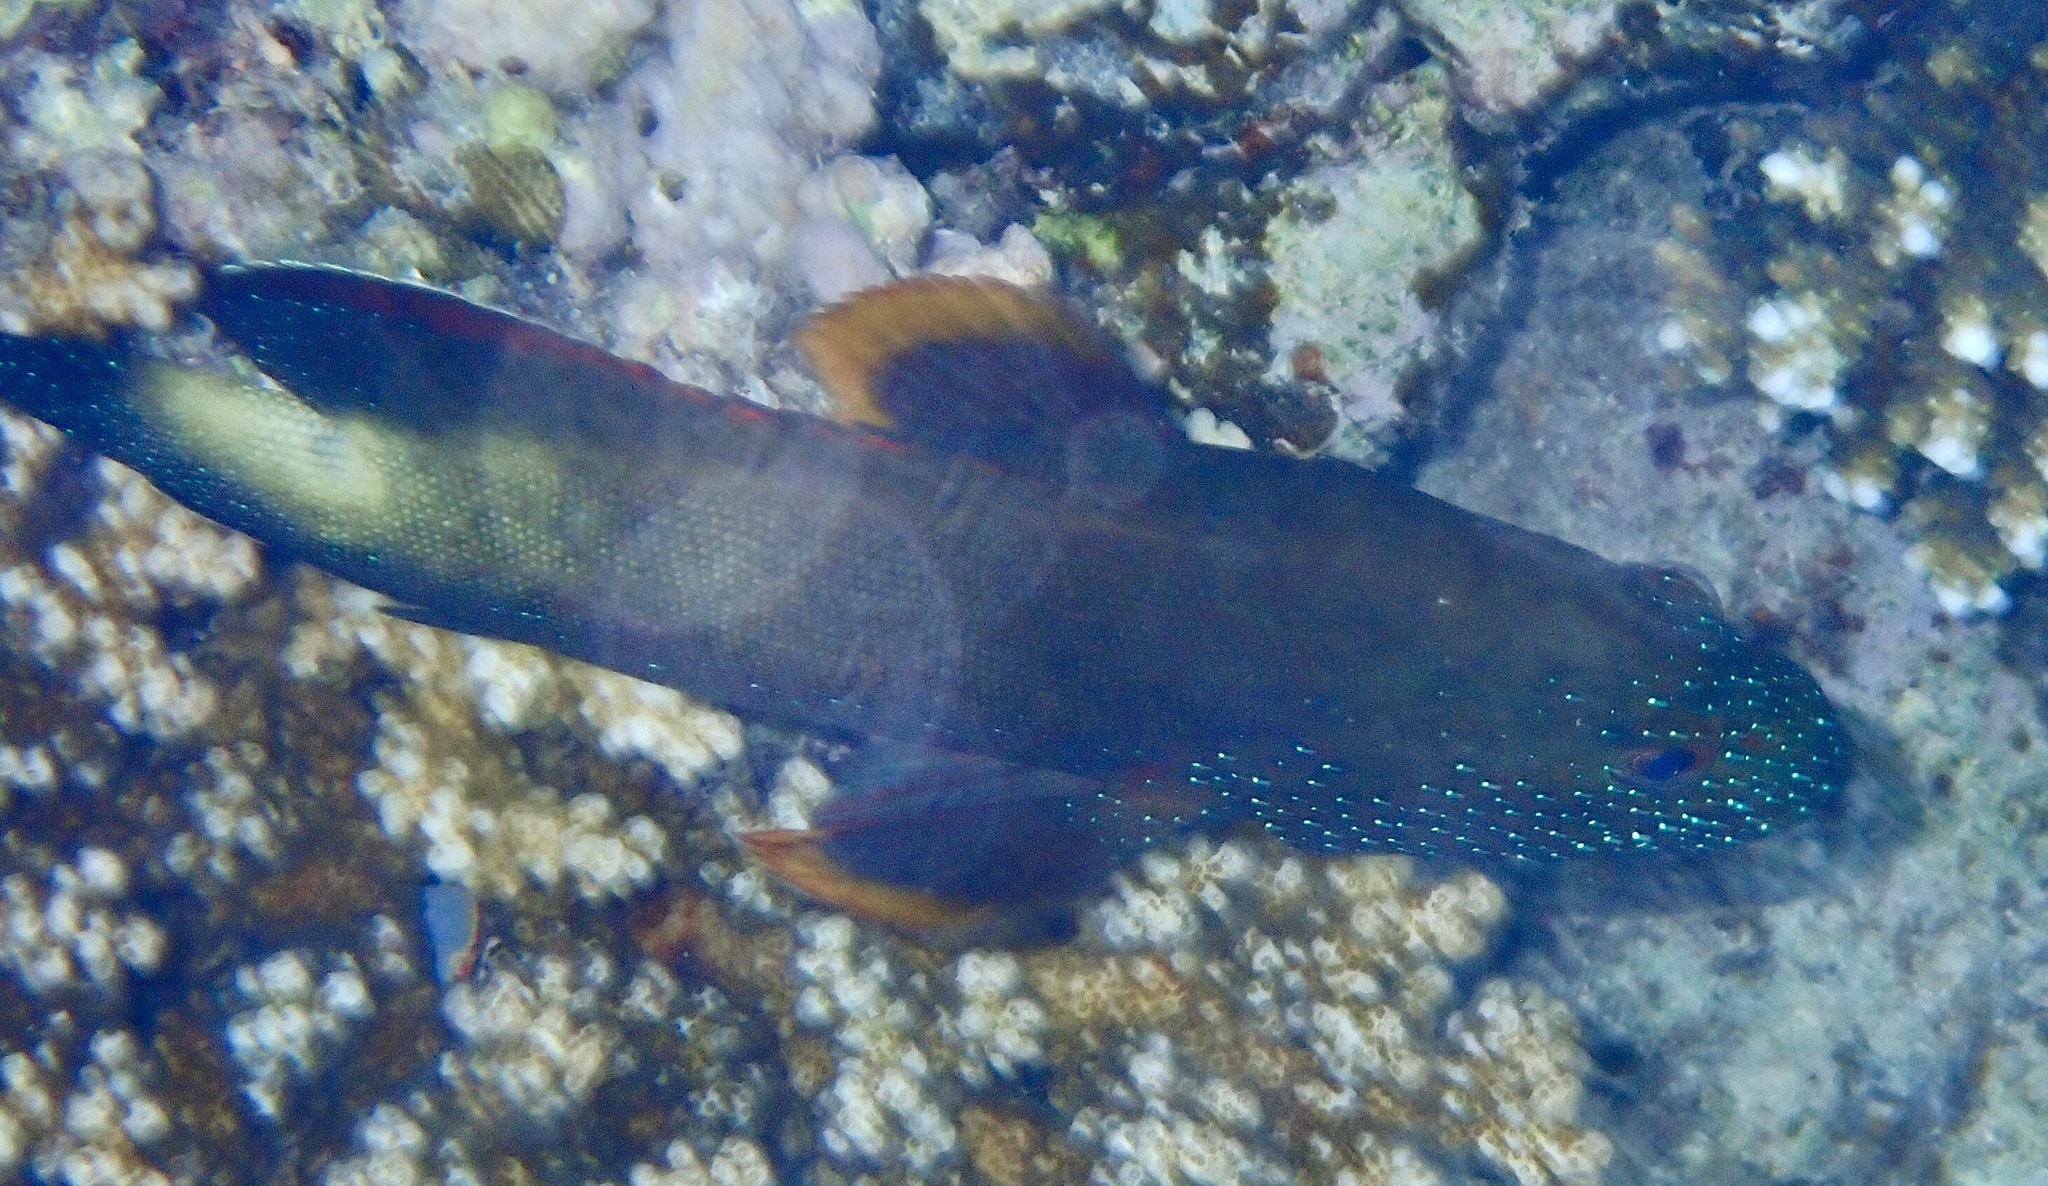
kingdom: Animalia
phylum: Chordata
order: Perciformes
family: Serranidae
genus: Cephalopholis
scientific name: Cephalopholis hemistiktos
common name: Halfspotted hind
